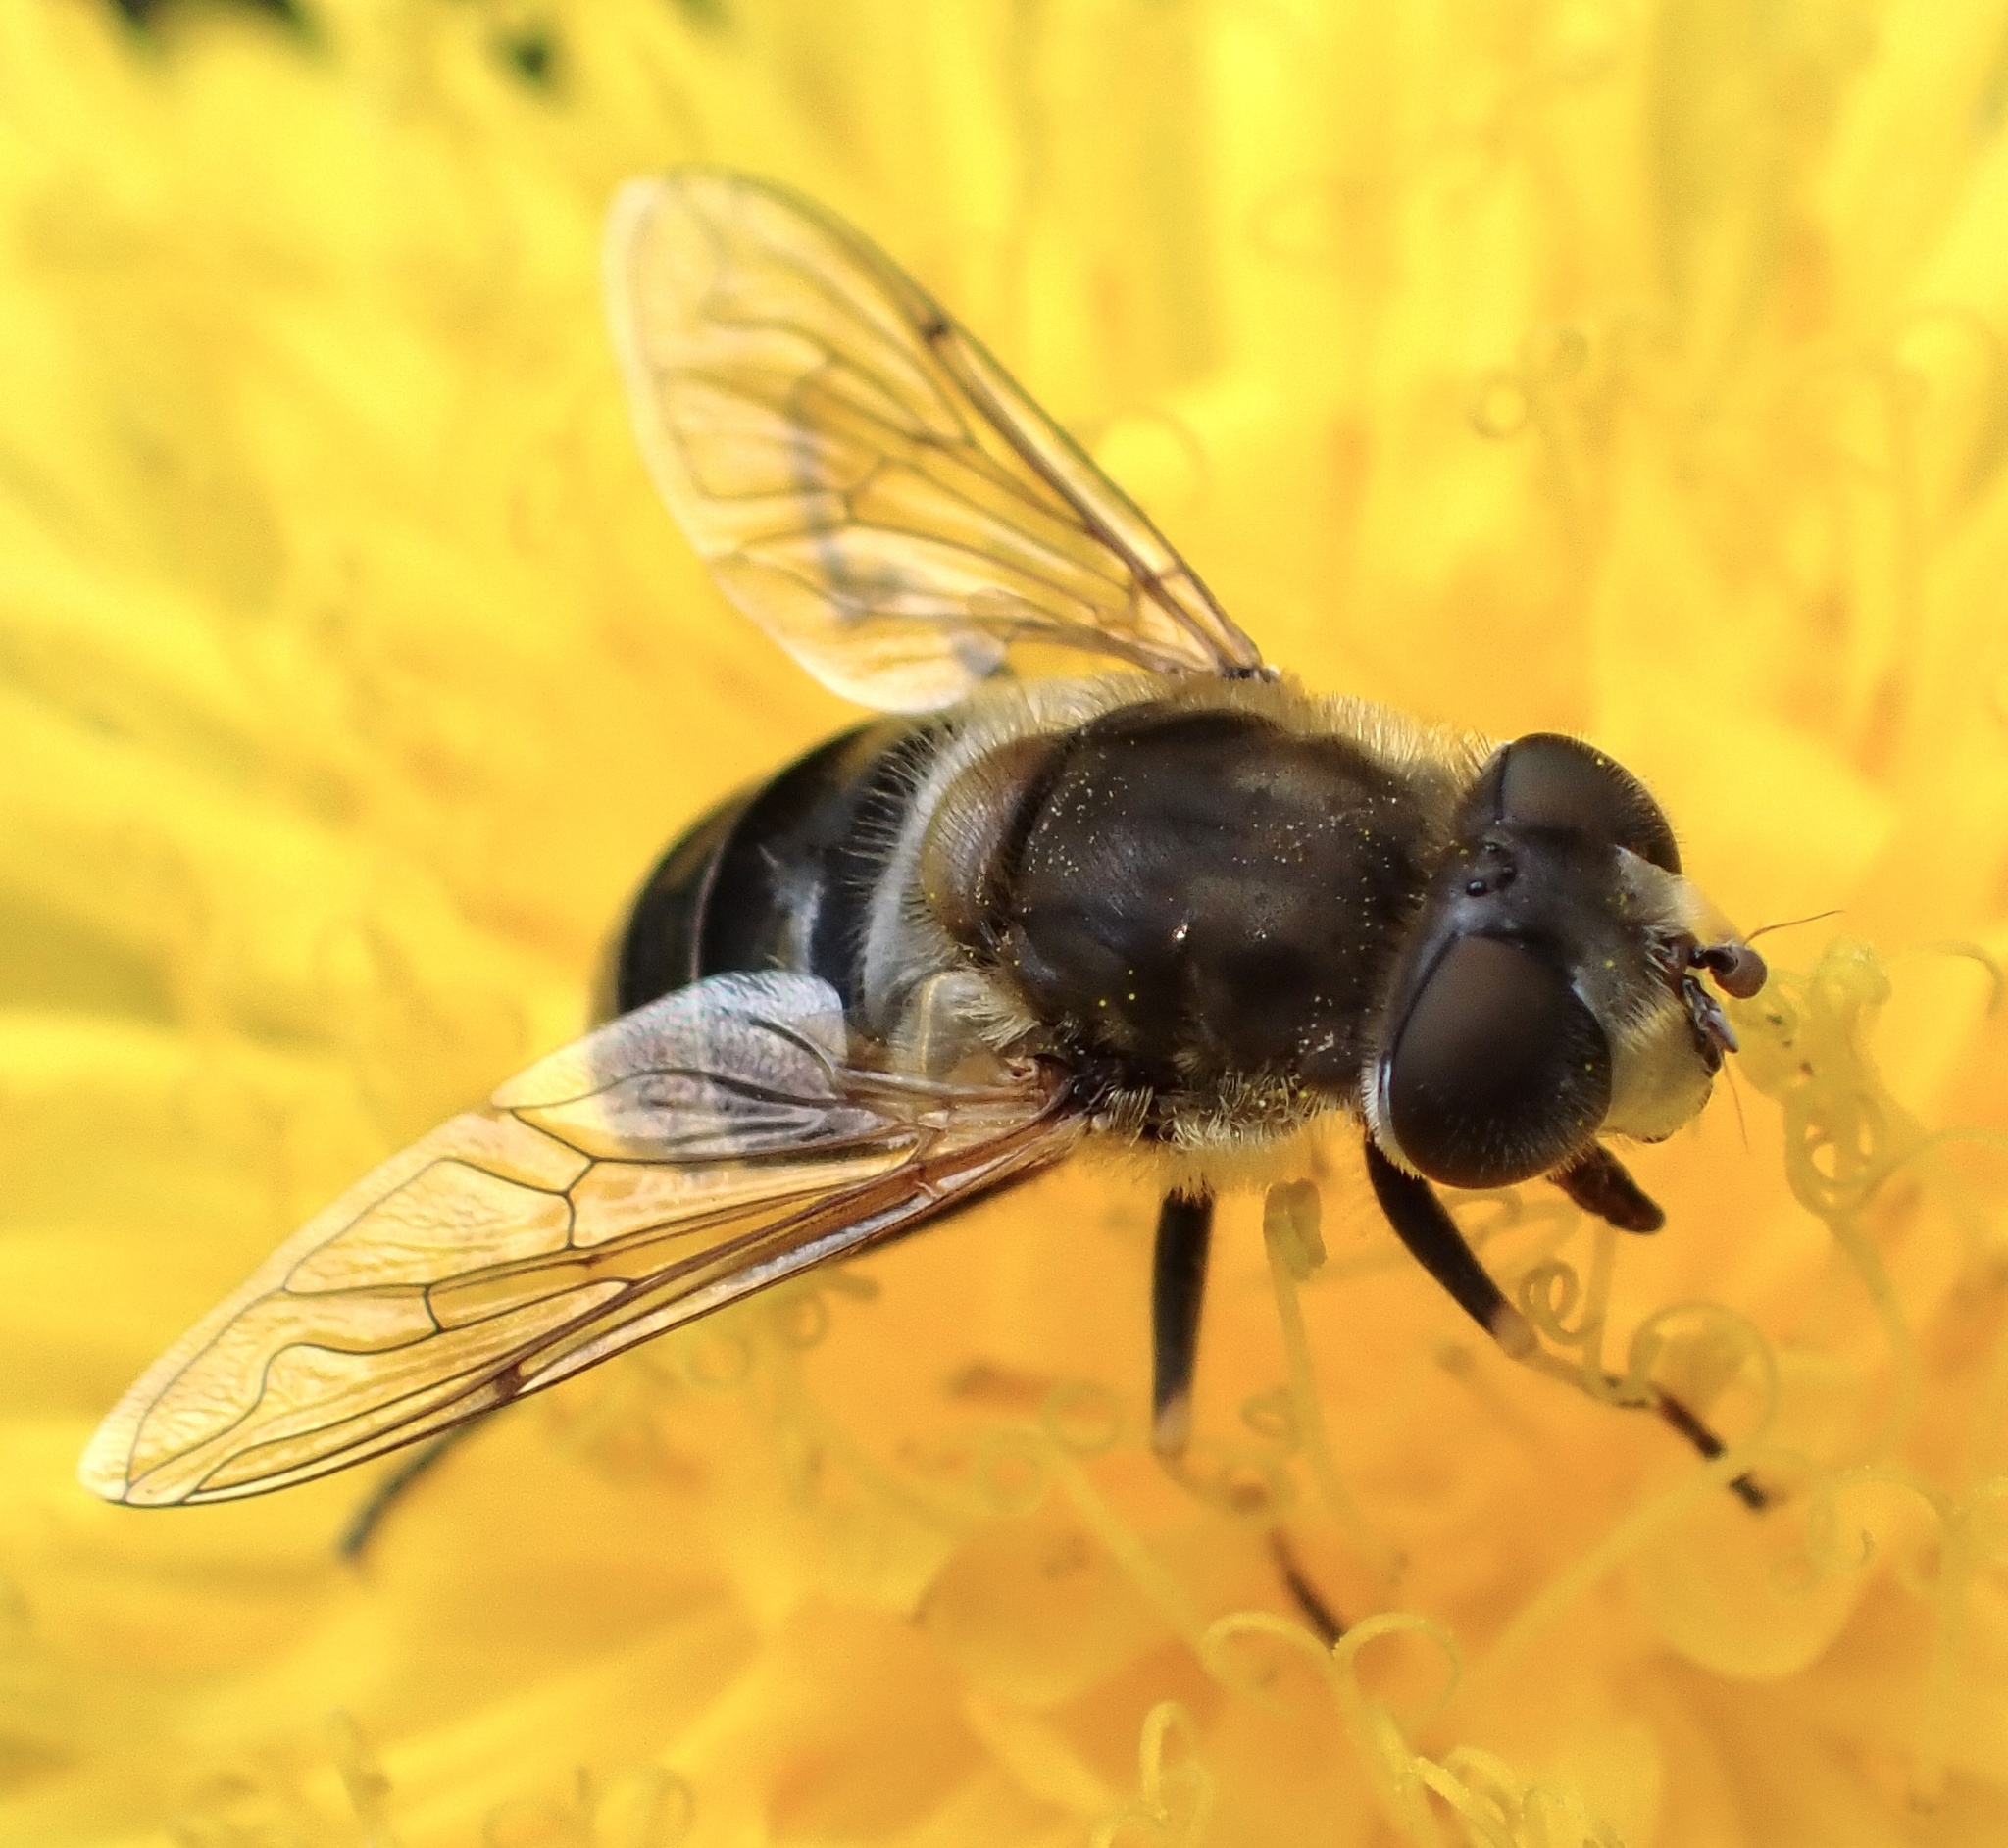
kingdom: Animalia
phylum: Arthropoda
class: Insecta
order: Diptera
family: Syrphidae
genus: Eristalis
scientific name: Eristalis nemorum
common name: Orange-spined drone fly
